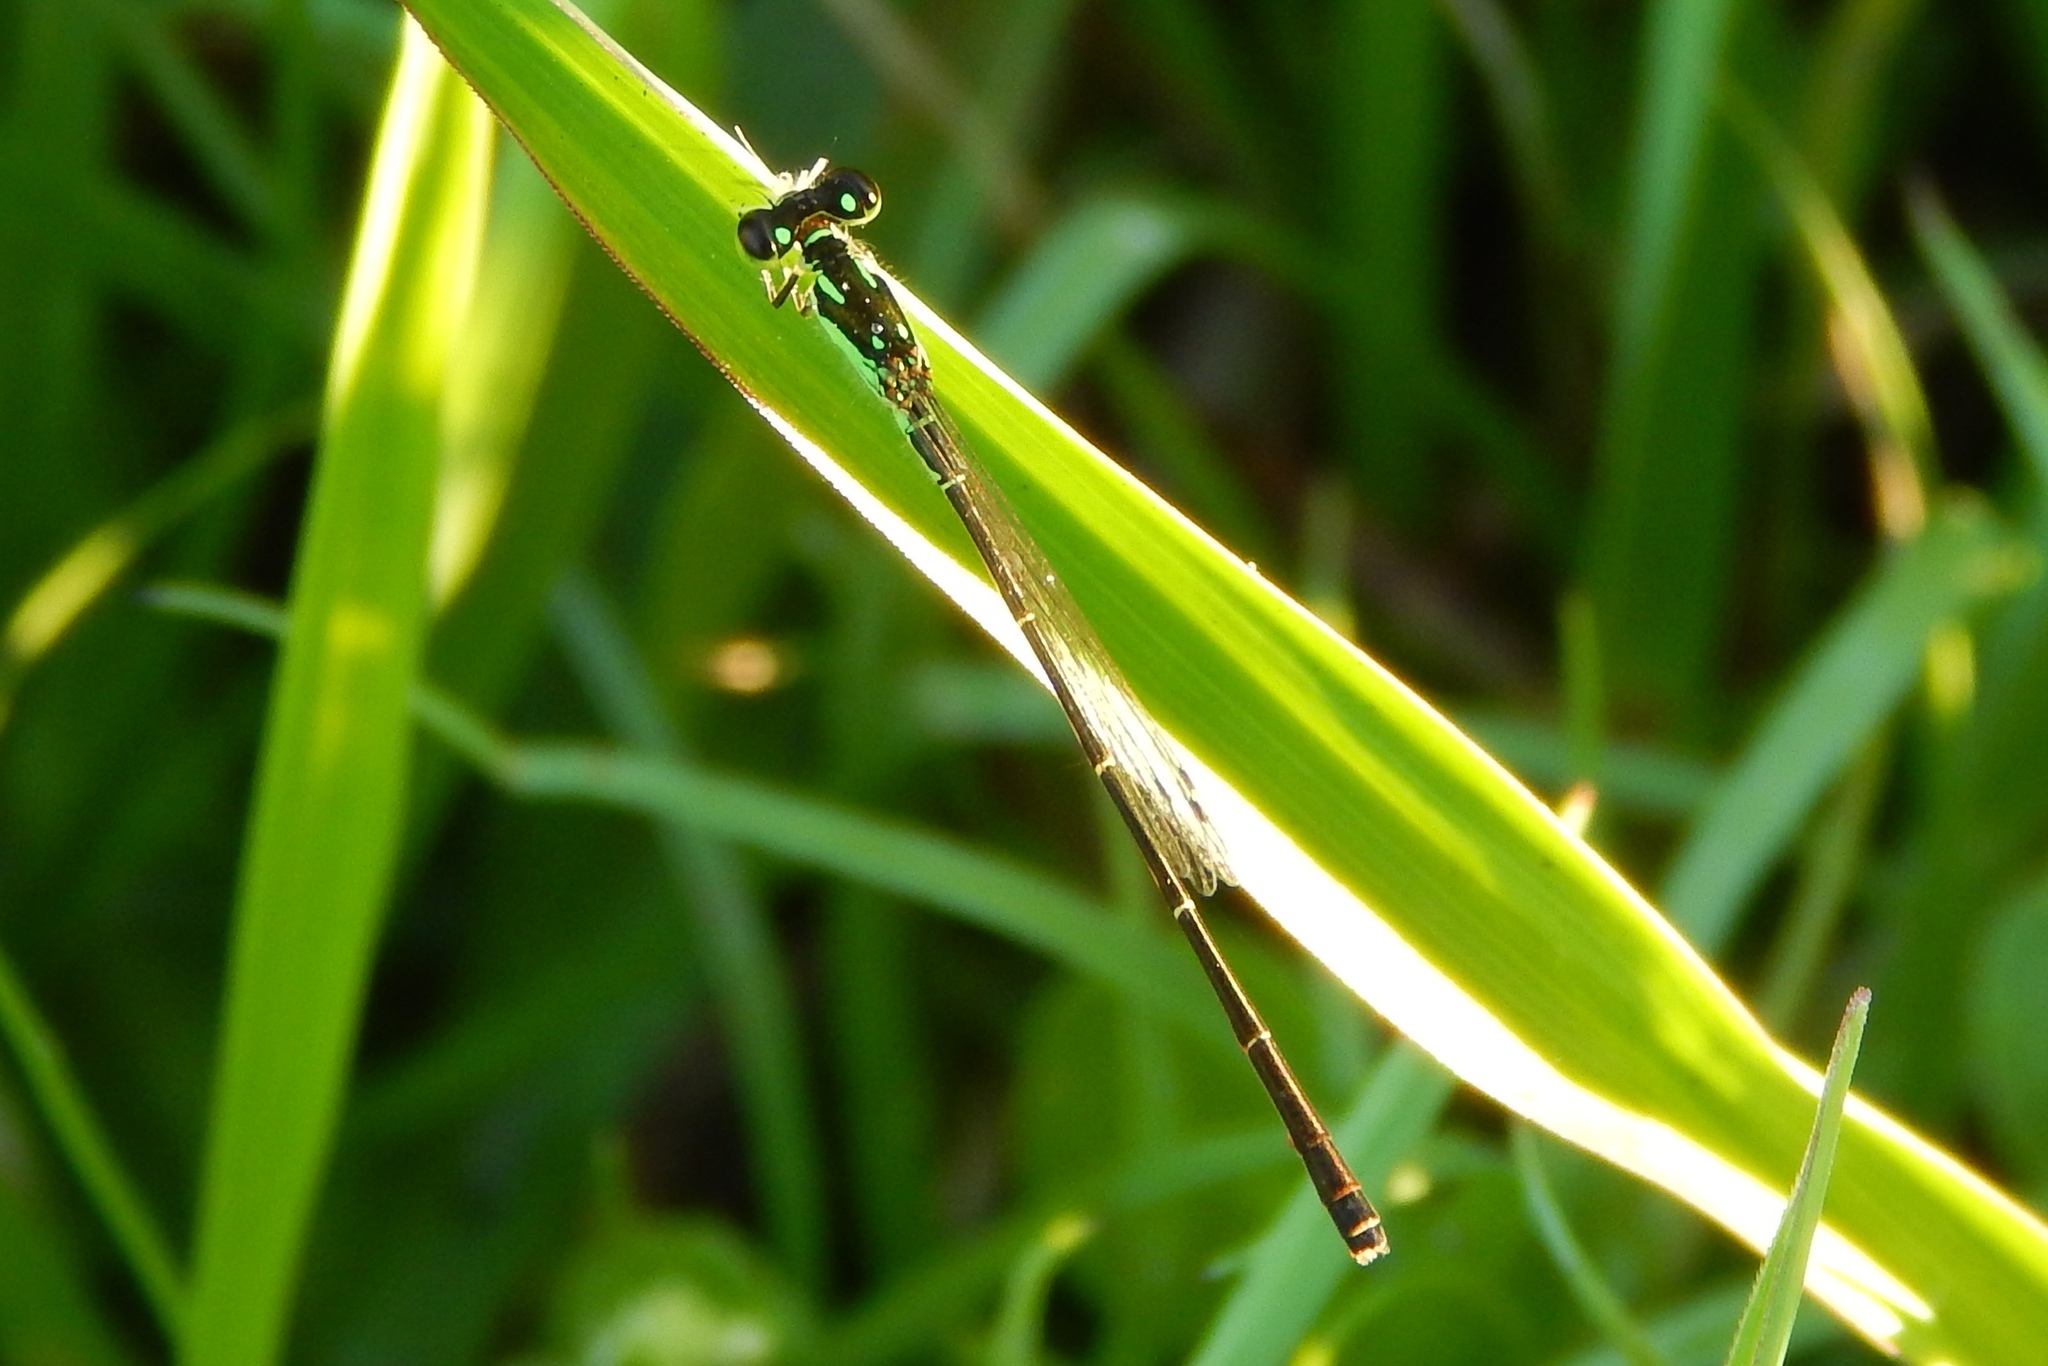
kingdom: Animalia
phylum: Arthropoda
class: Insecta
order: Odonata
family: Coenagrionidae
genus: Ischnura
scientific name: Ischnura posita
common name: Fragile forktail
